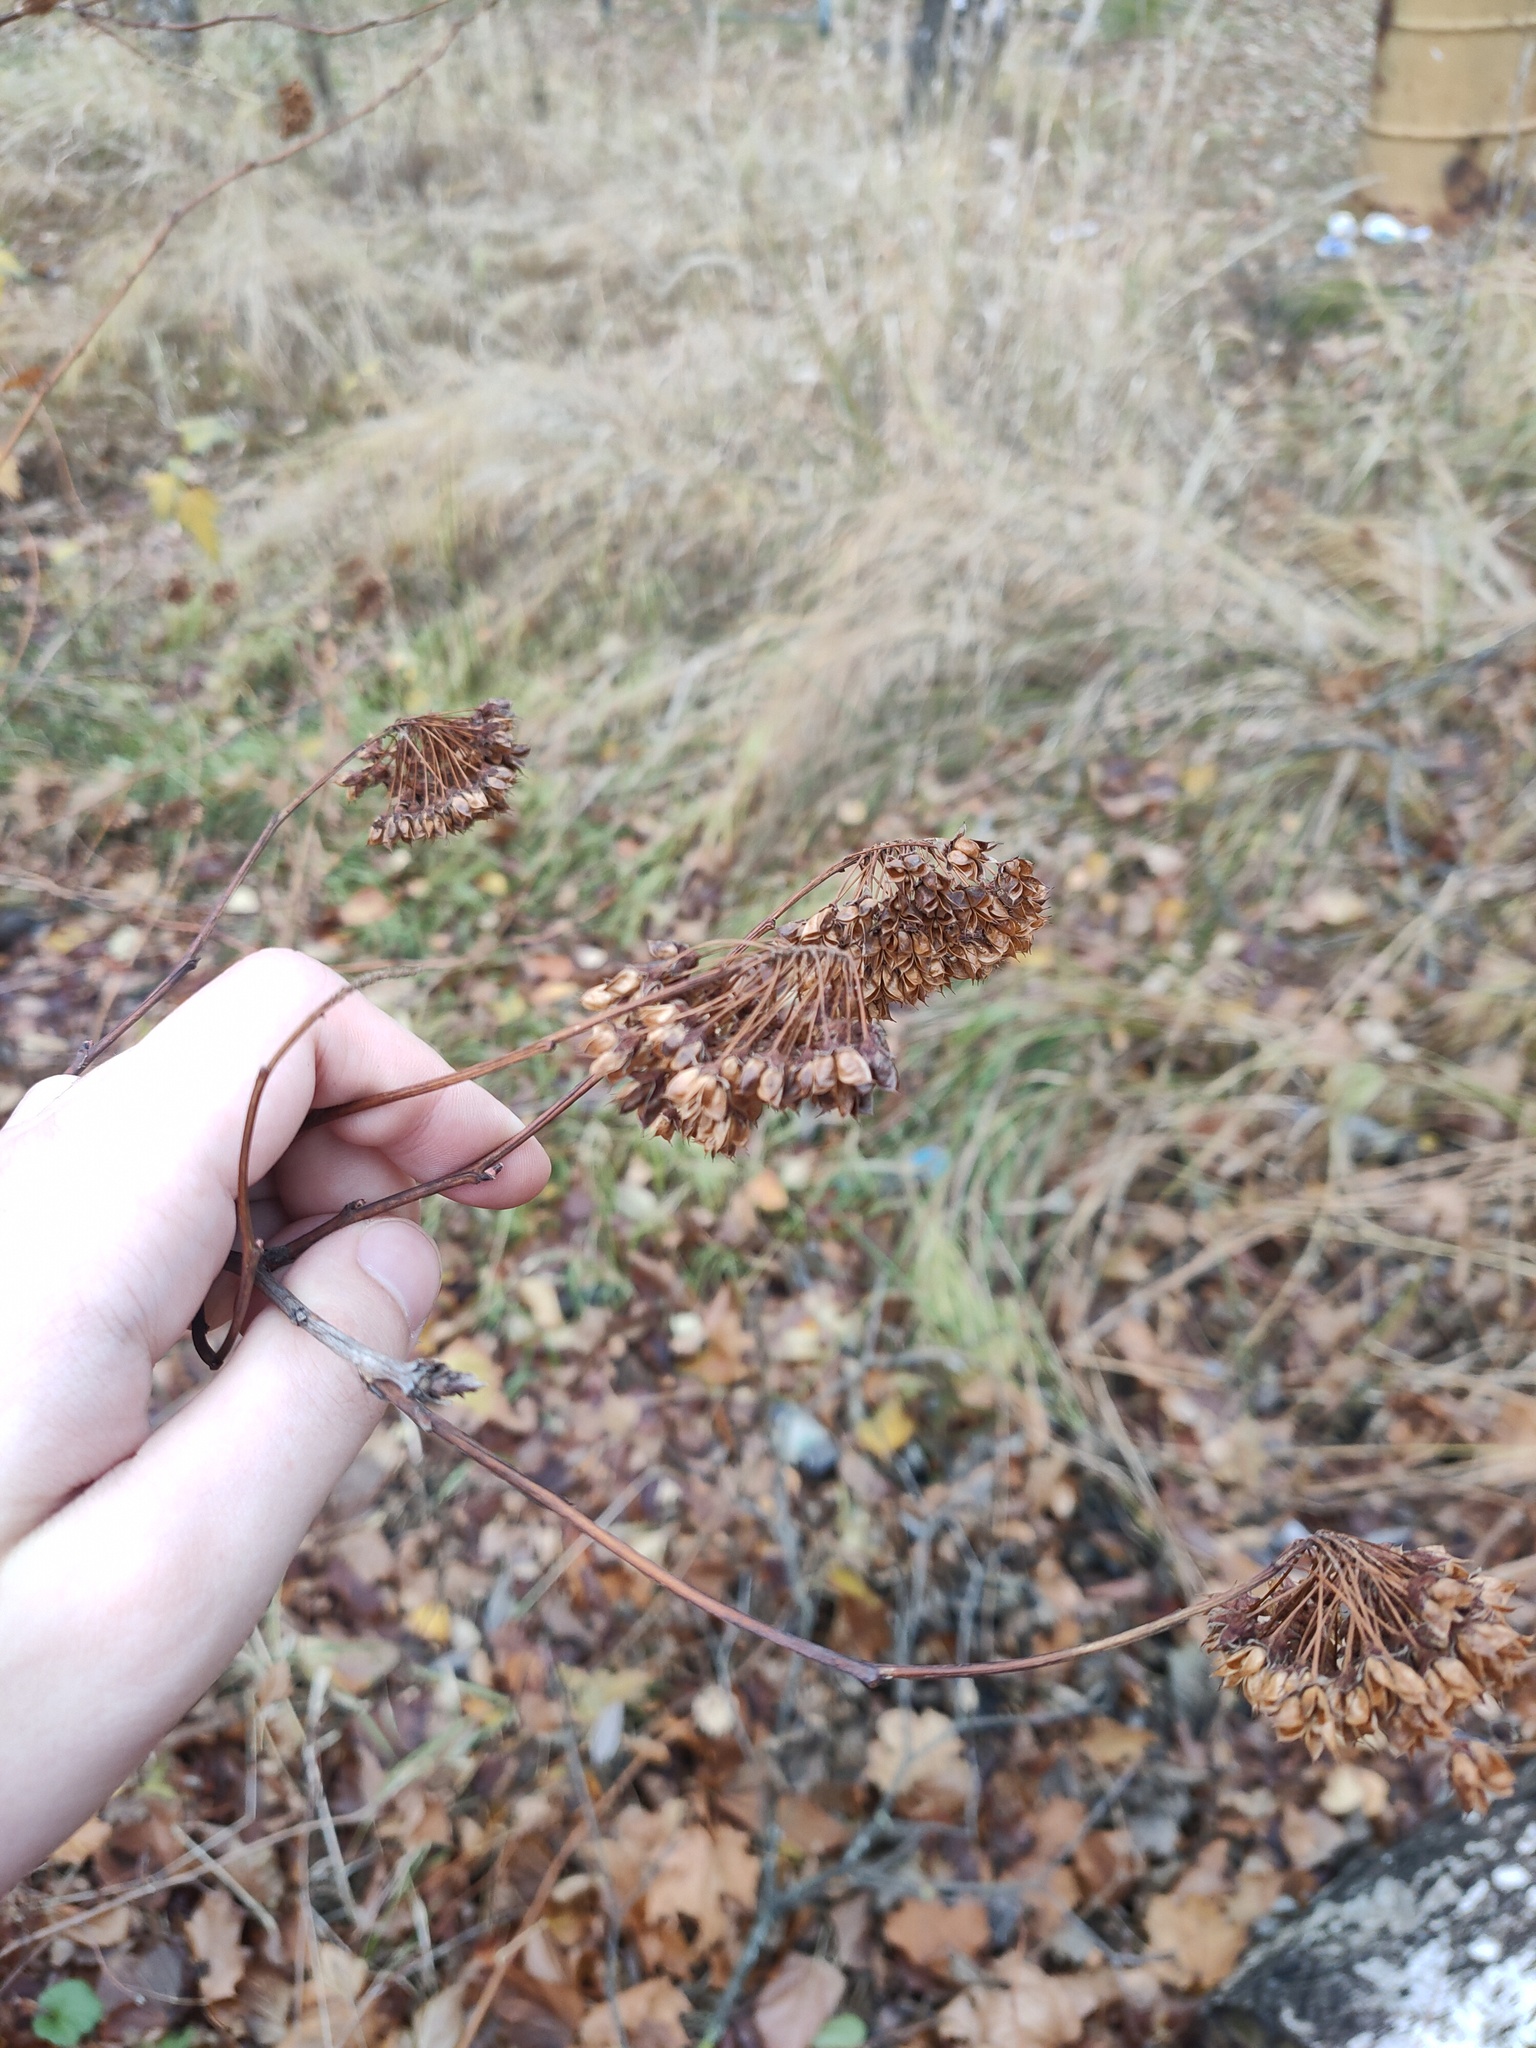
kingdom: Plantae
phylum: Tracheophyta
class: Magnoliopsida
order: Rosales
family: Rosaceae
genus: Physocarpus
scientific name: Physocarpus opulifolius
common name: Ninebark
